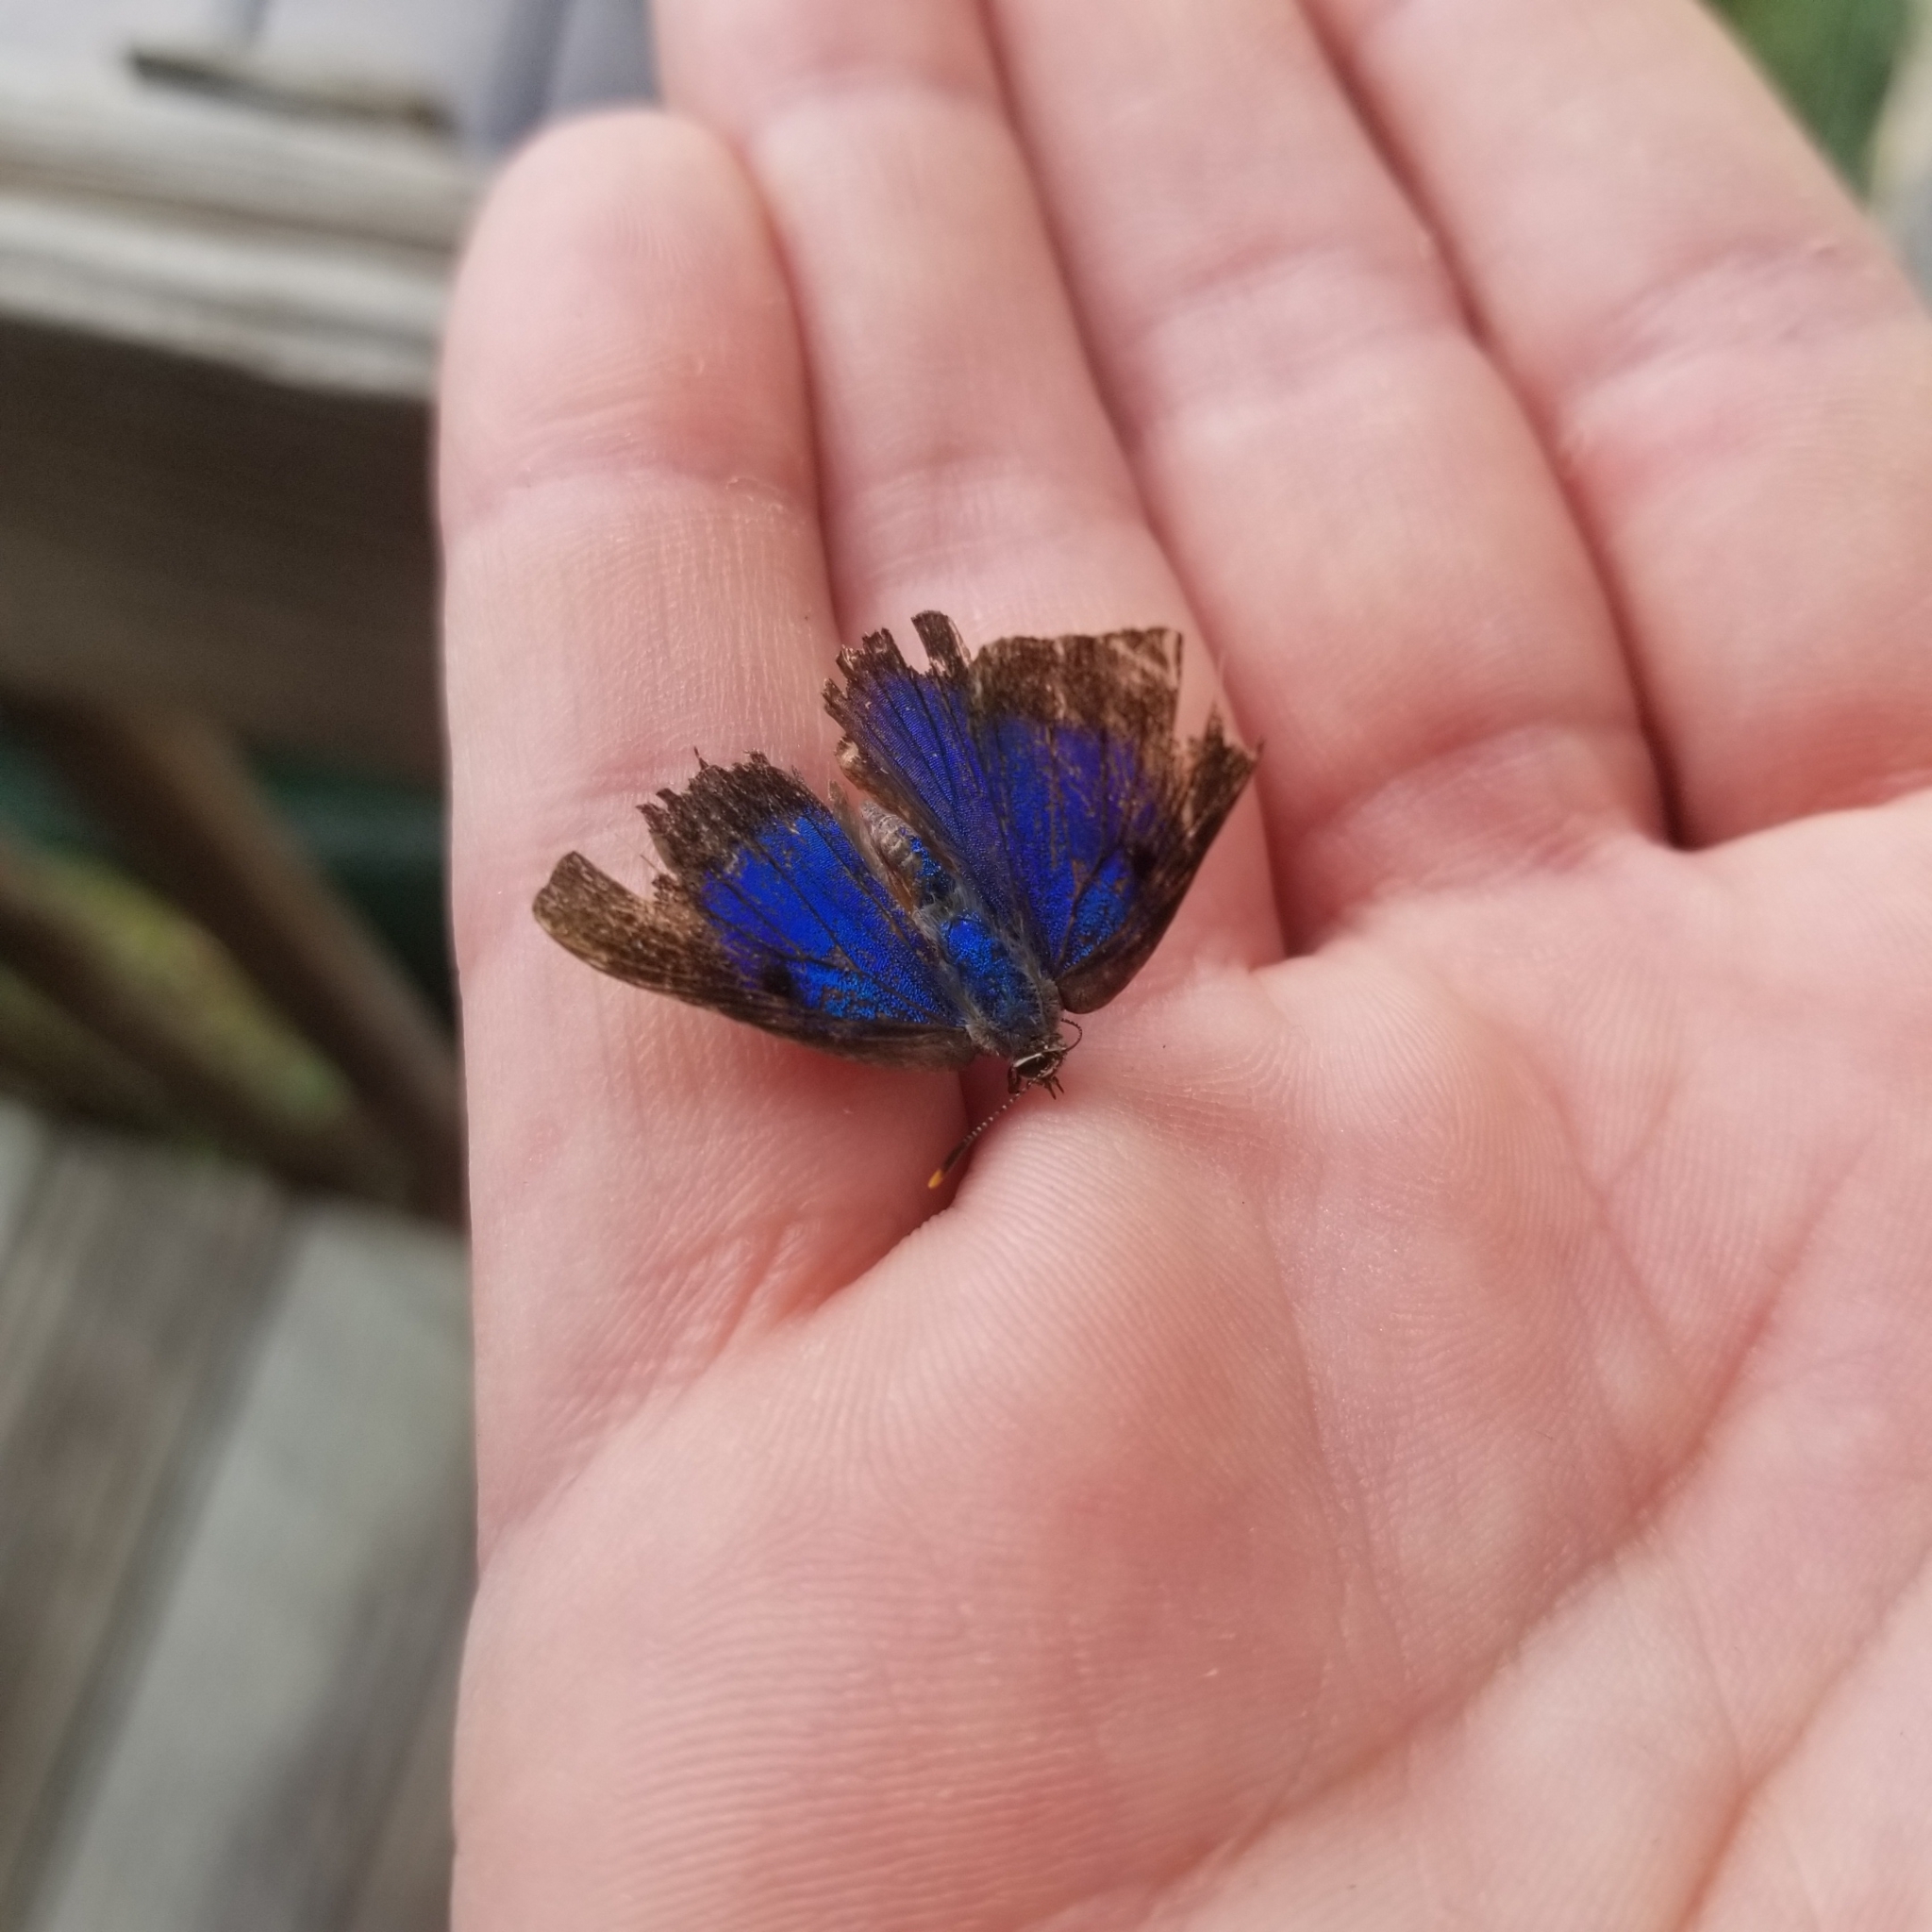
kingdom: Animalia
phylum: Arthropoda
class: Insecta
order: Lepidoptera
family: Lycaenidae
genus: Parrhasius
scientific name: Parrhasius m-album
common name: White m hairstreak
